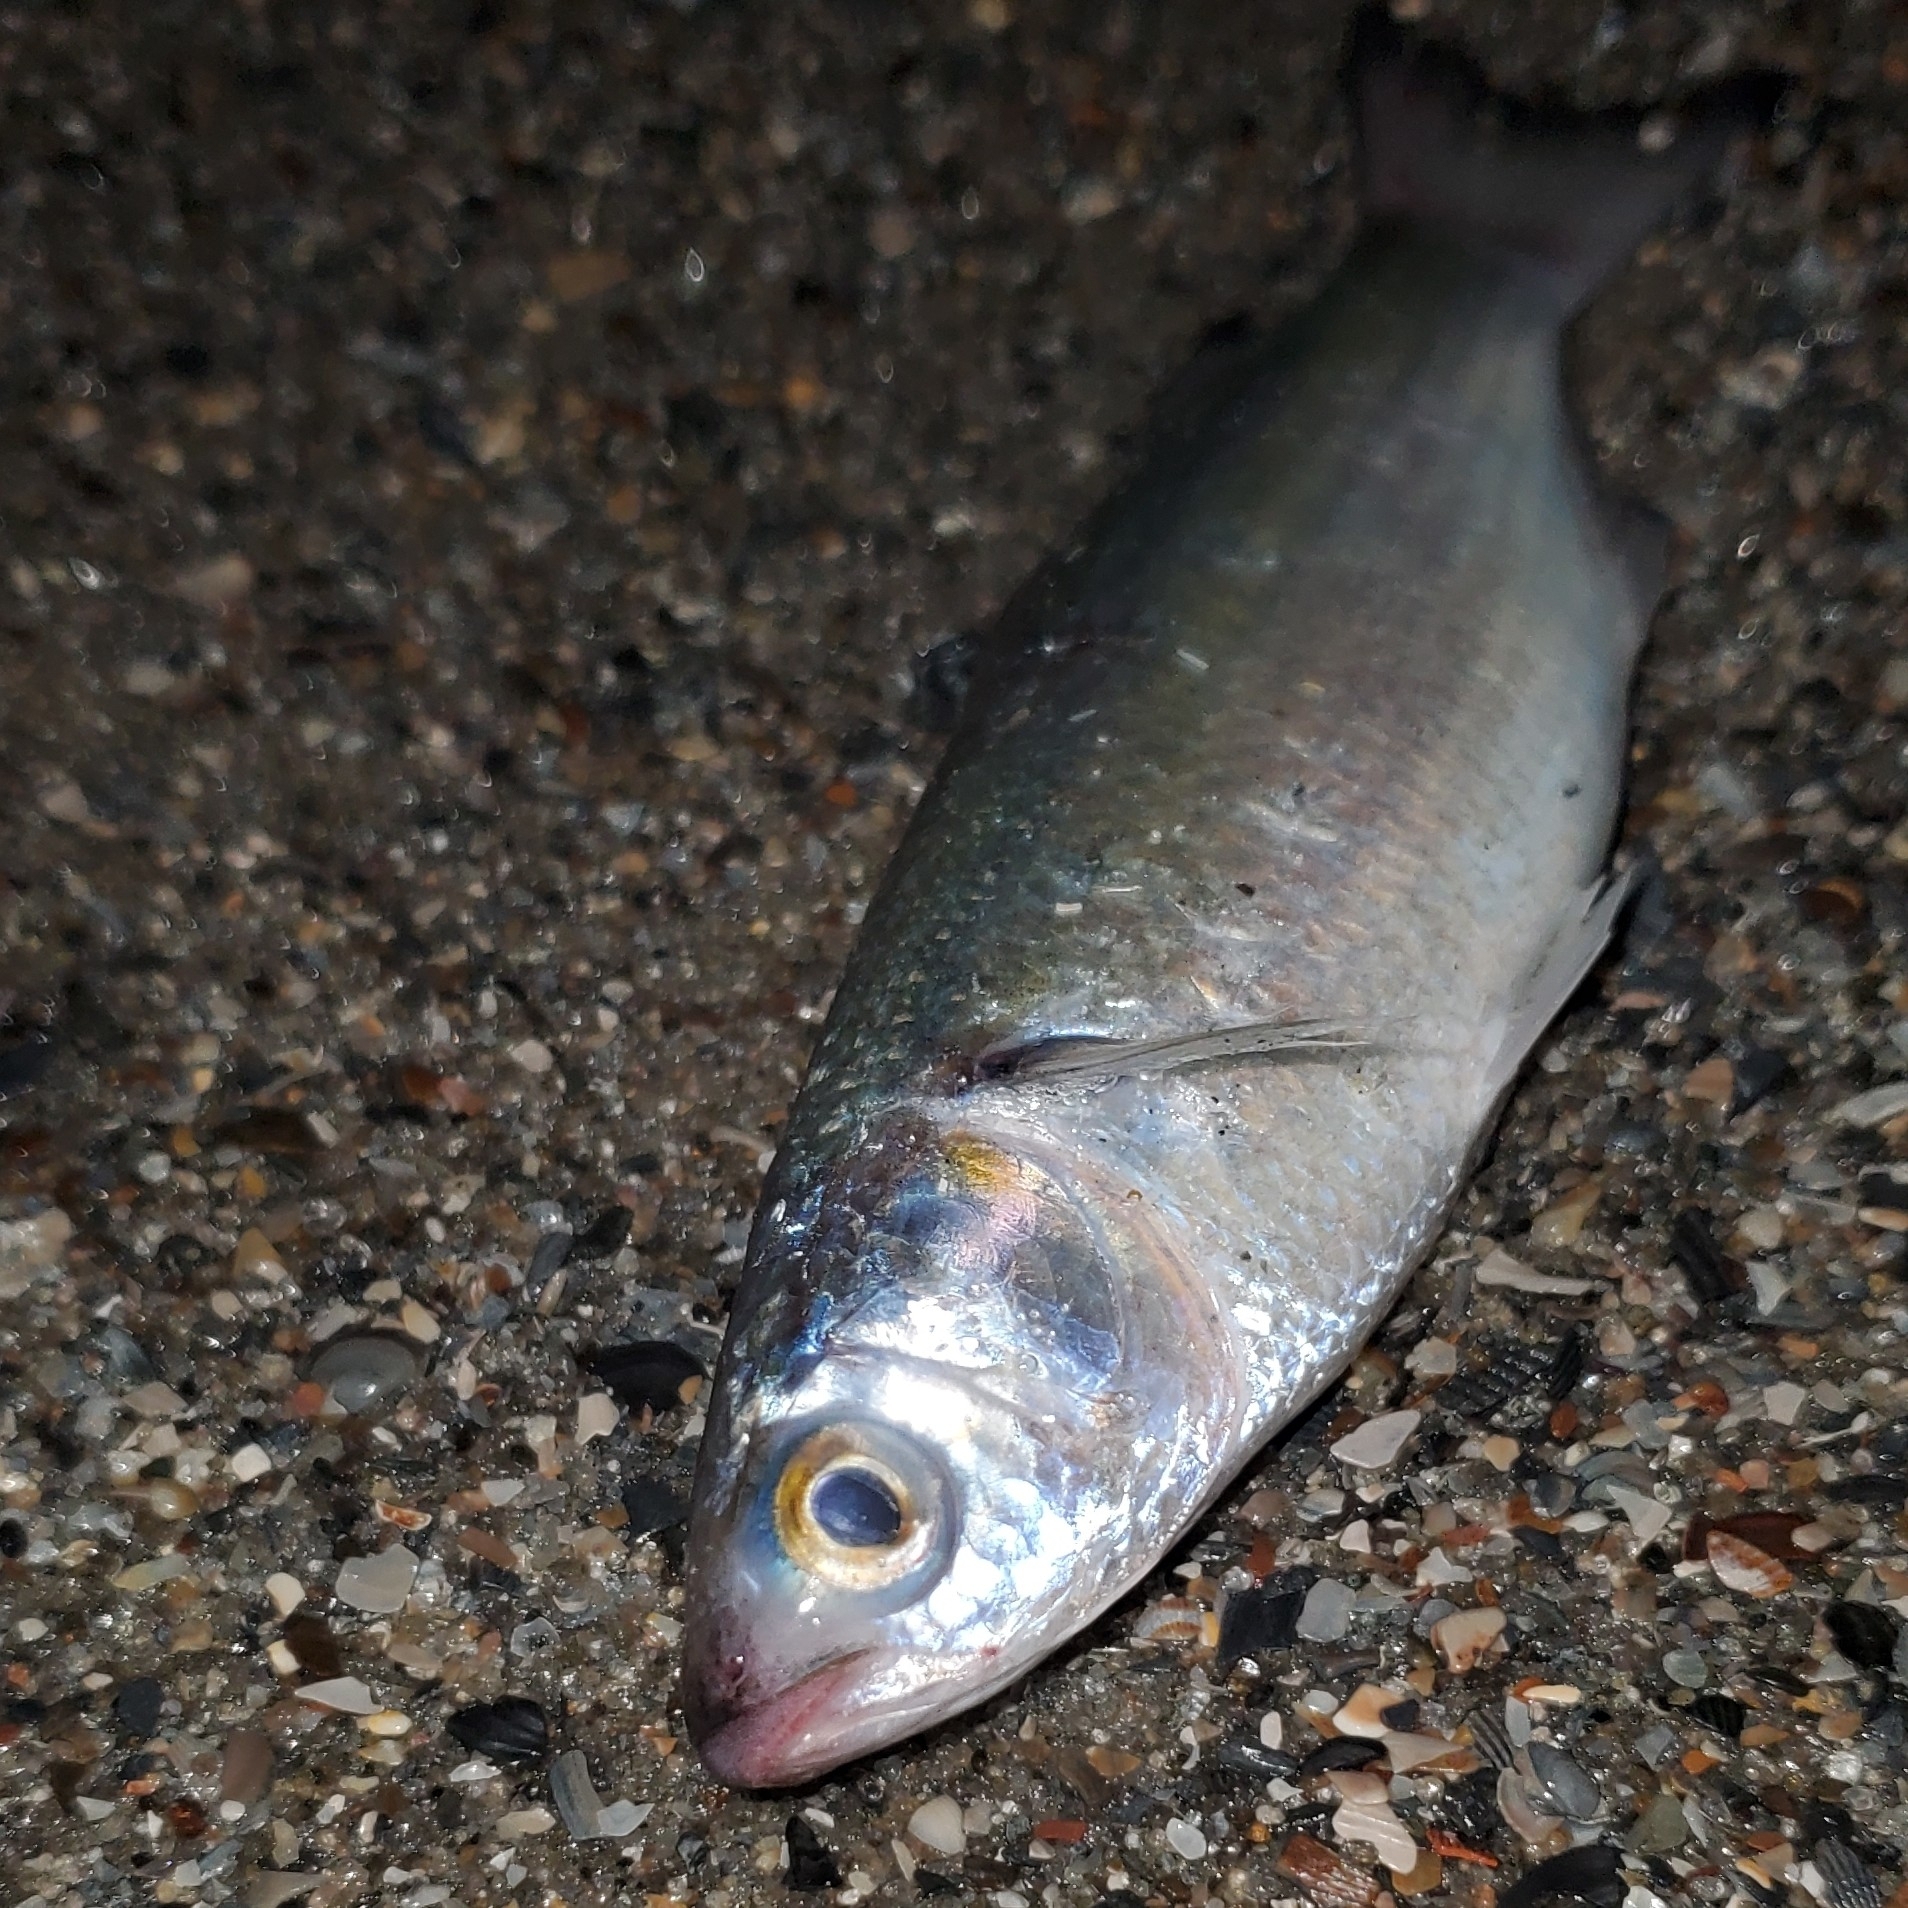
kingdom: Animalia
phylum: Chordata
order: Mugiliformes
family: Mugilidae
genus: Mugil
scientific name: Mugil curema
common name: White mullet
